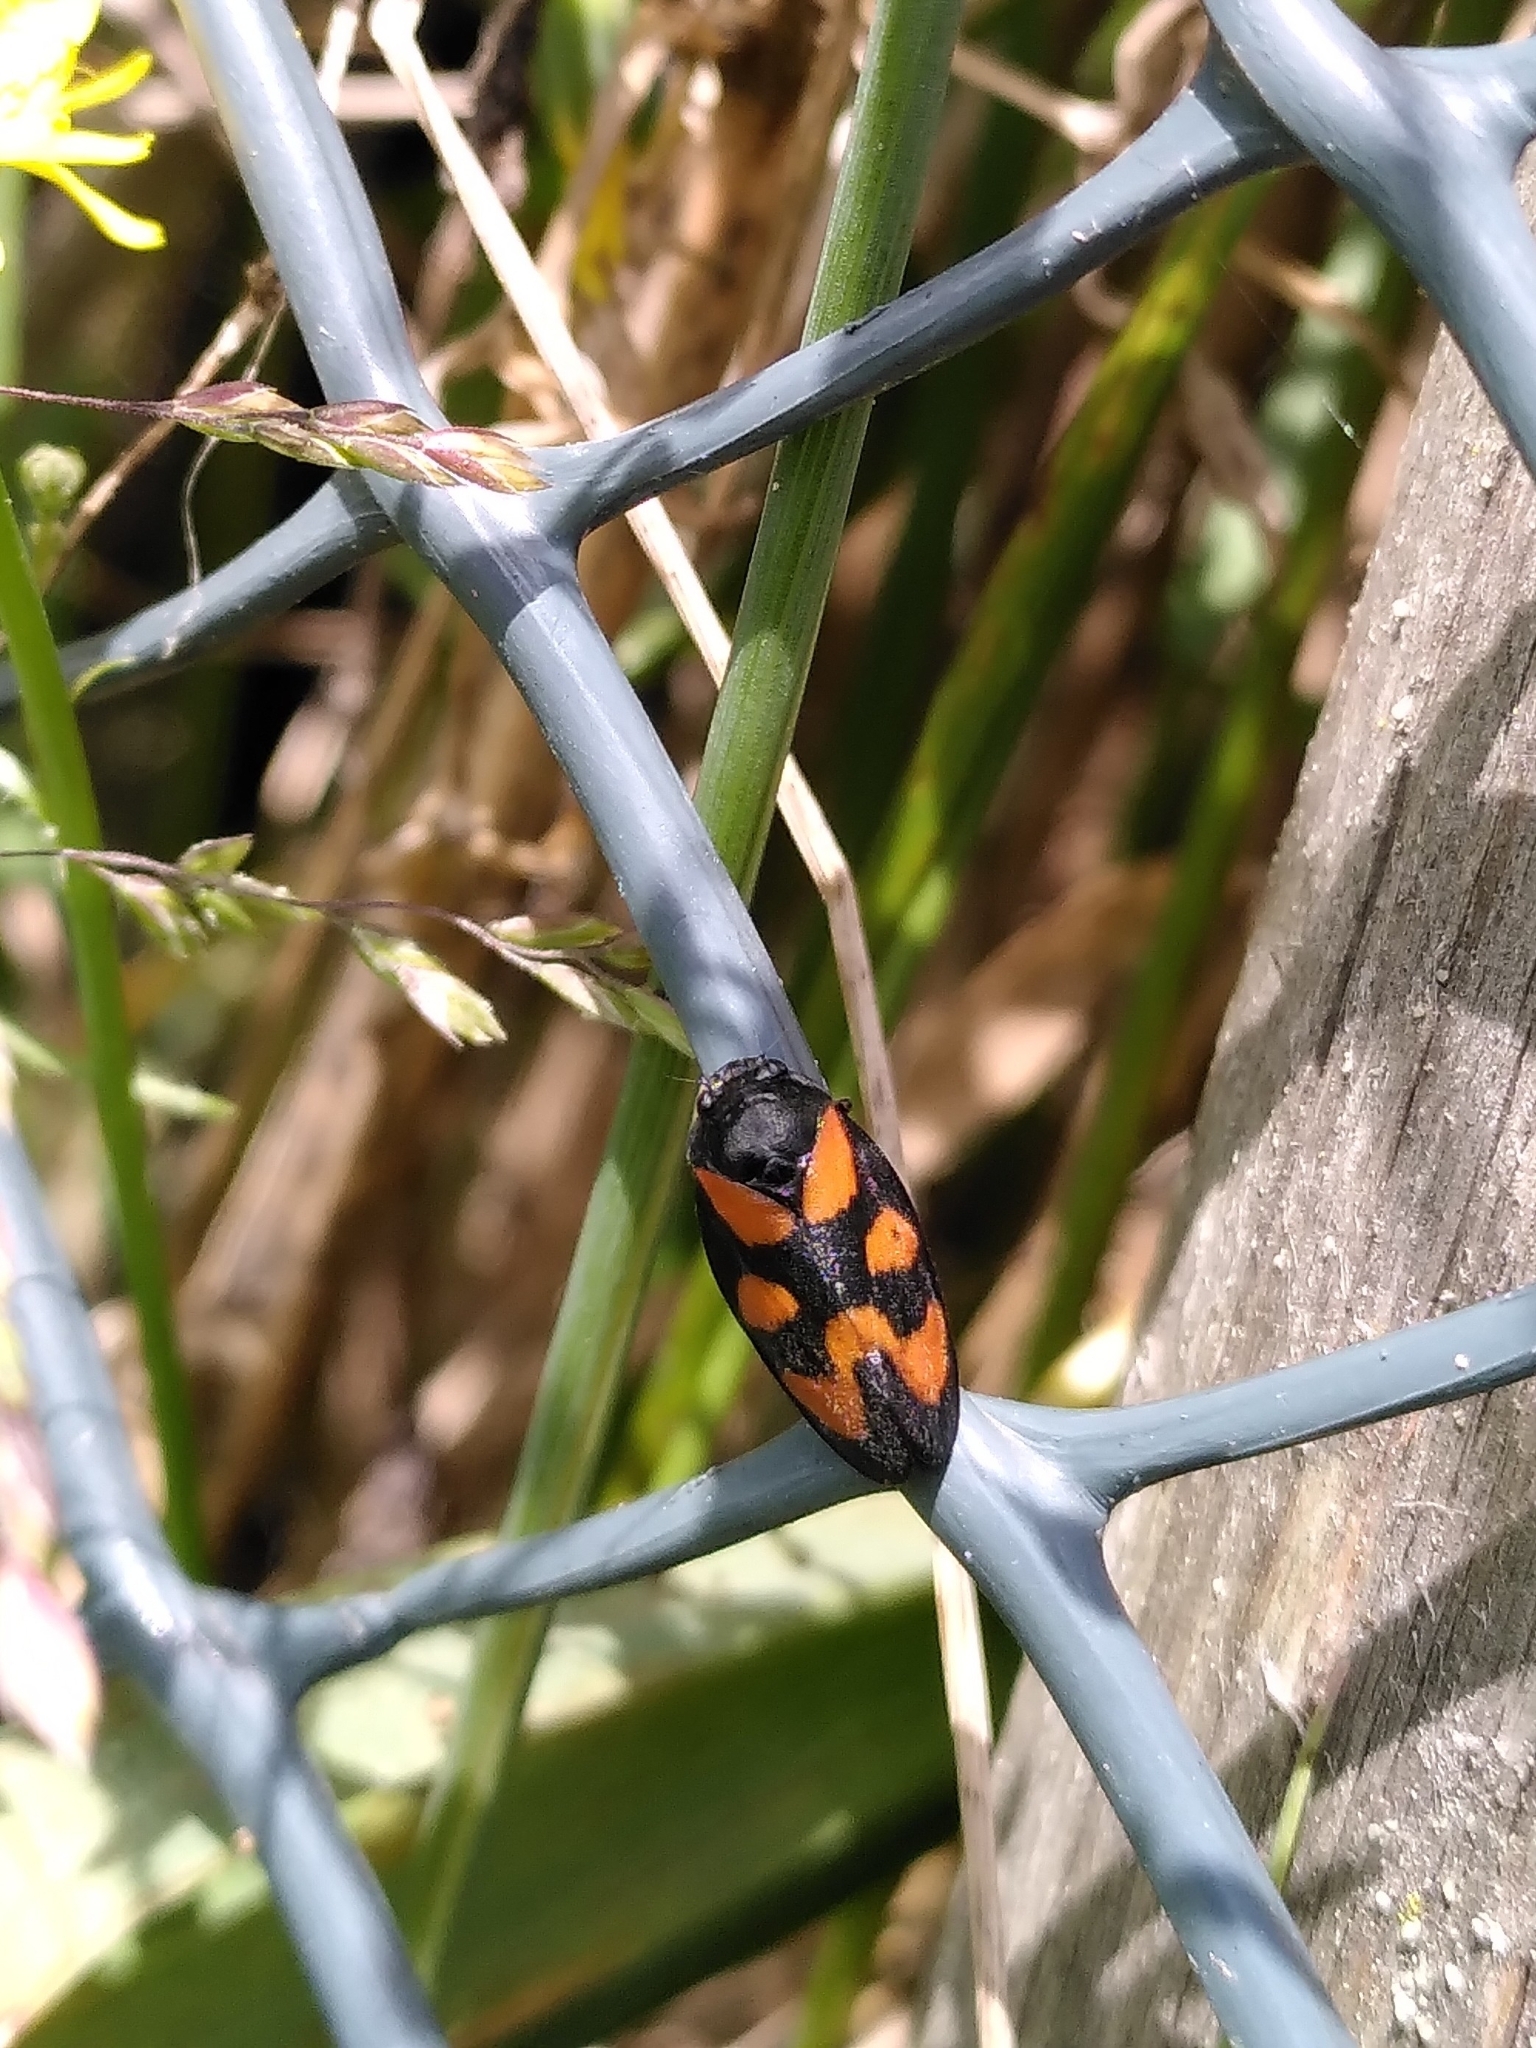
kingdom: Animalia
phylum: Arthropoda
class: Insecta
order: Hemiptera
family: Cercopidae
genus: Cercopis
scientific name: Cercopis vulnerata
